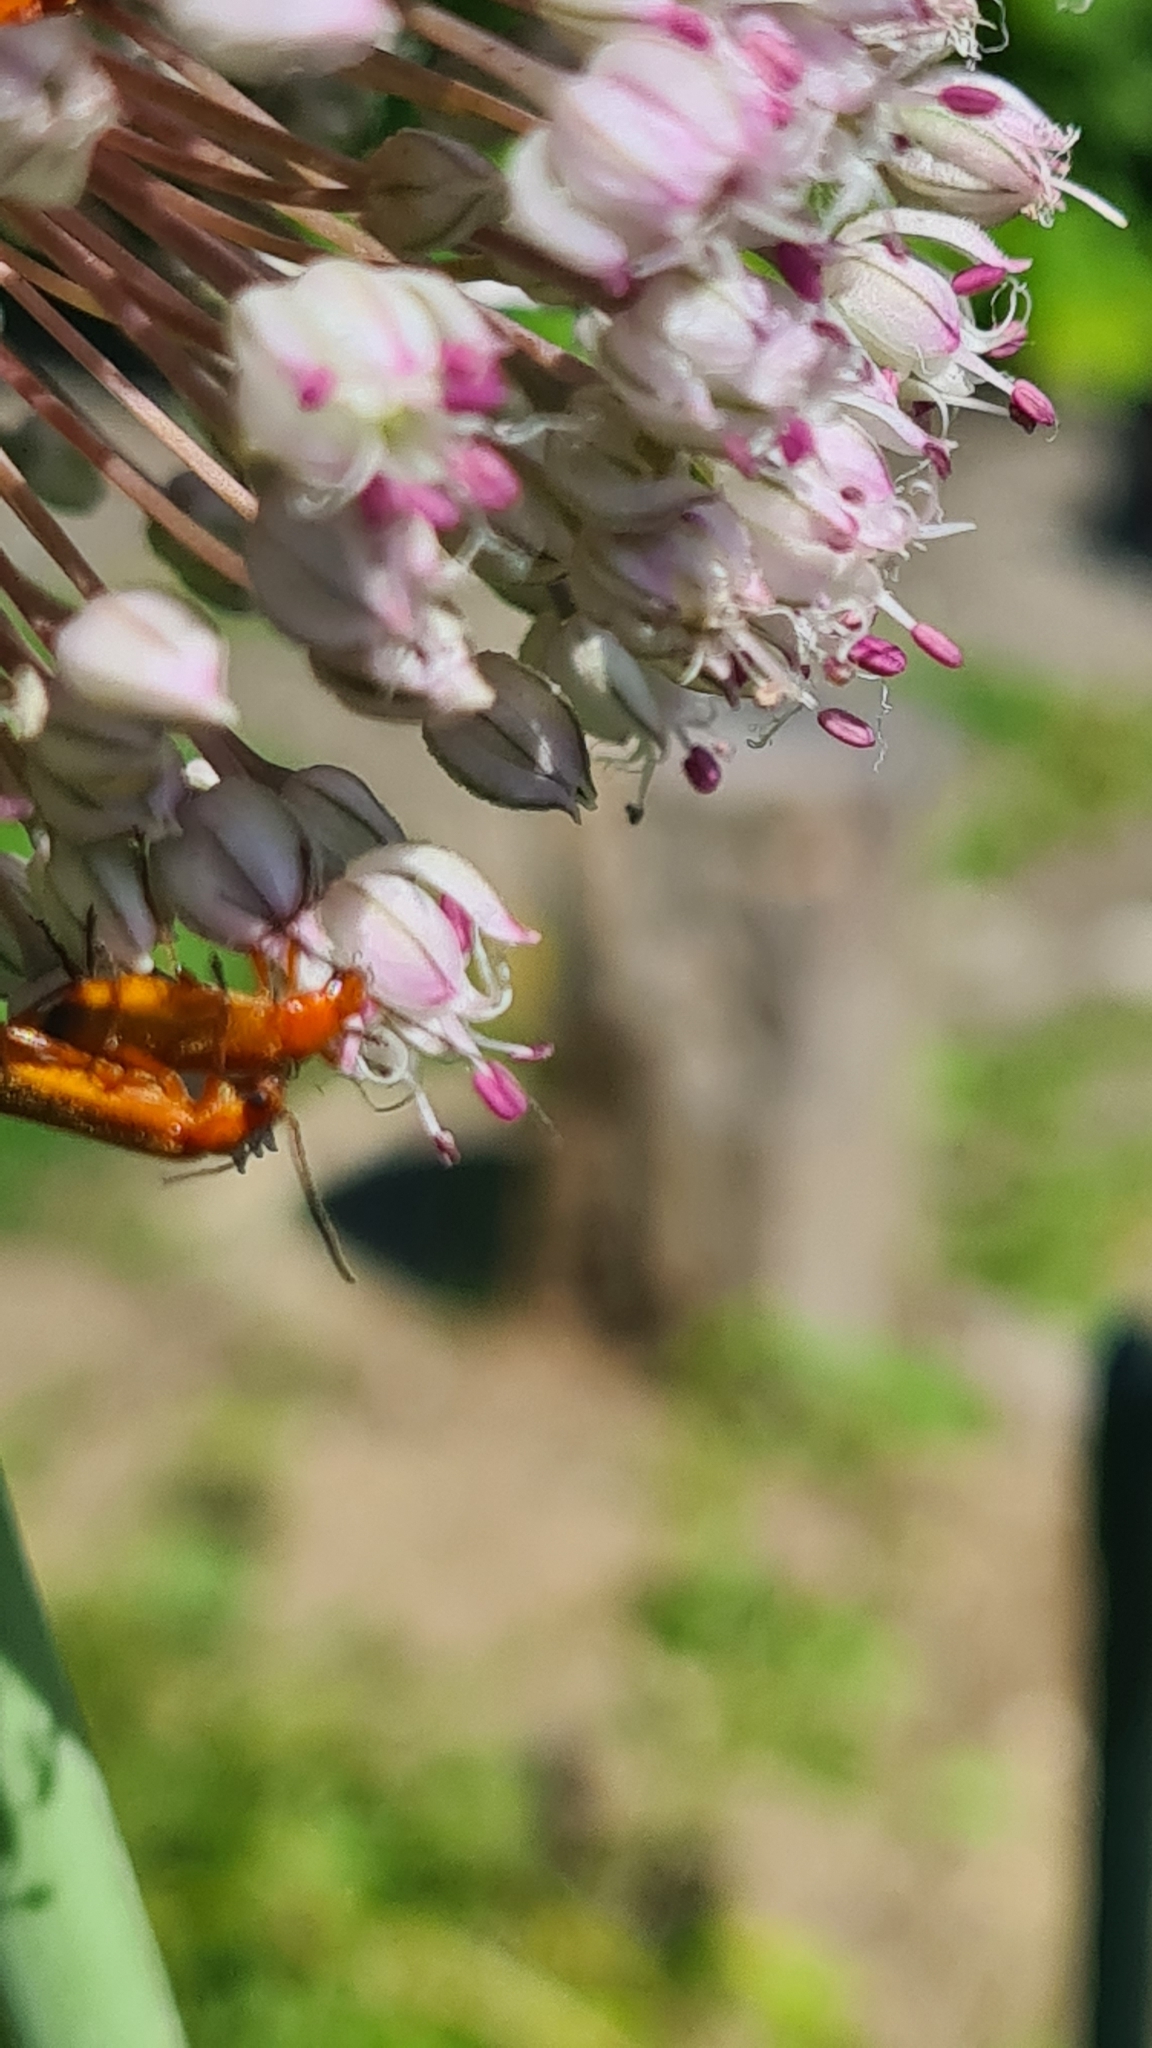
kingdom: Animalia
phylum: Arthropoda
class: Insecta
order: Coleoptera
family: Cantharidae
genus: Rhagonycha
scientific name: Rhagonycha fulva
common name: Common red soldier beetle
